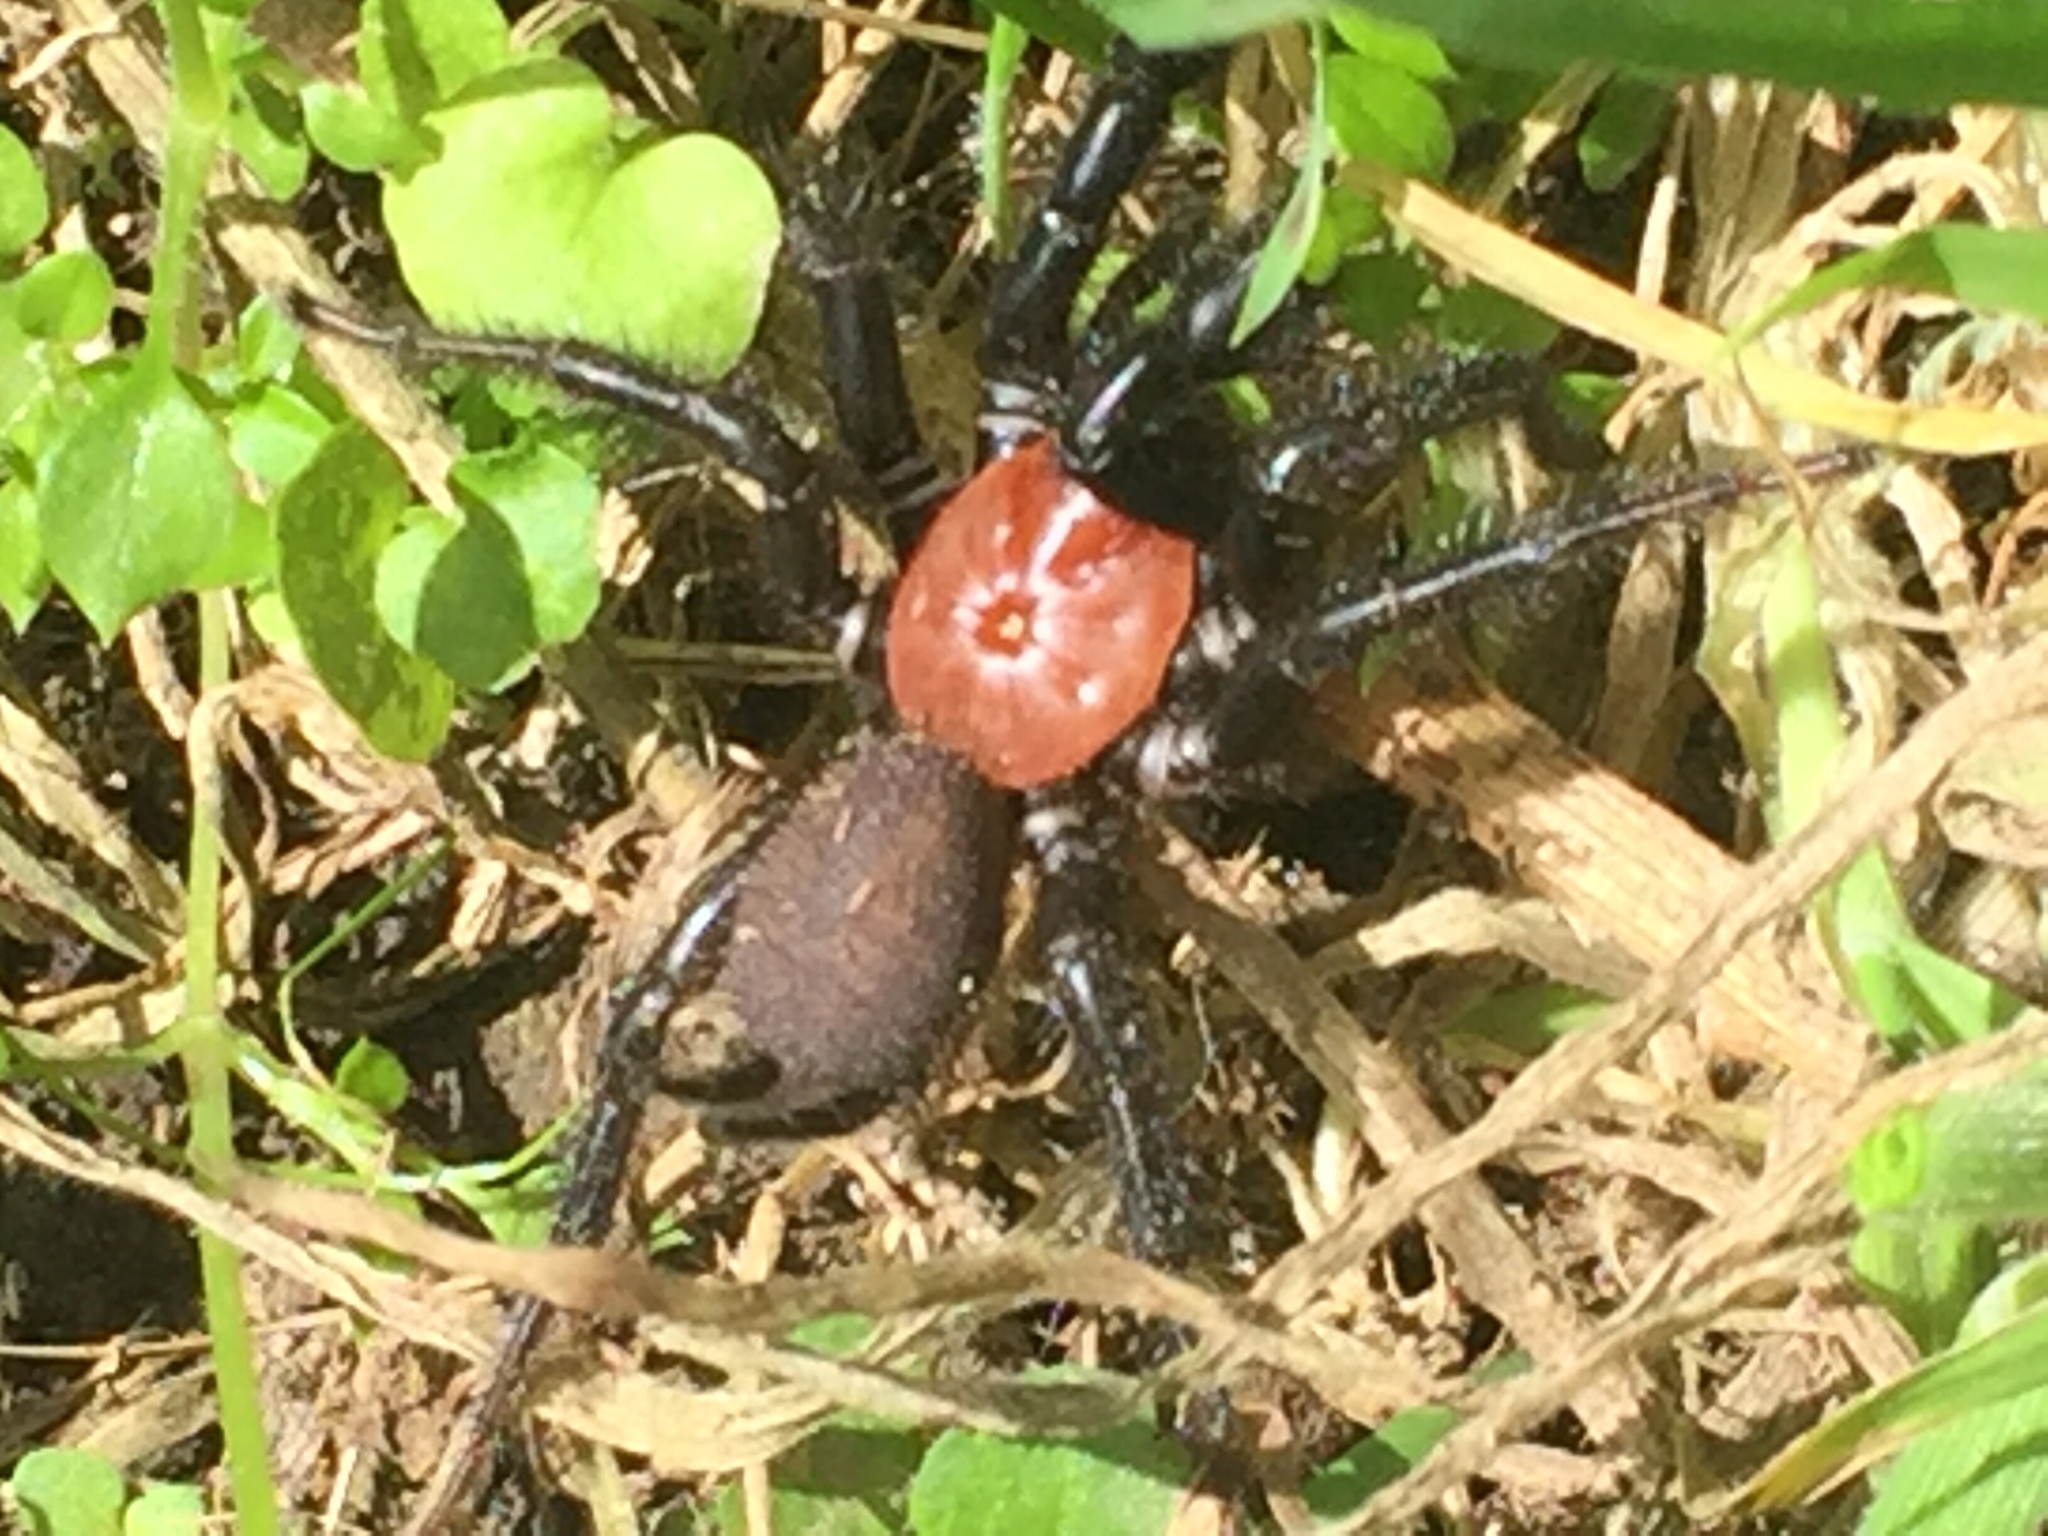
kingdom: Animalia
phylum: Arthropoda
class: Arachnida
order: Araneae
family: Porrhothelidae
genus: Porrhothele
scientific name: Porrhothele antipodiana
